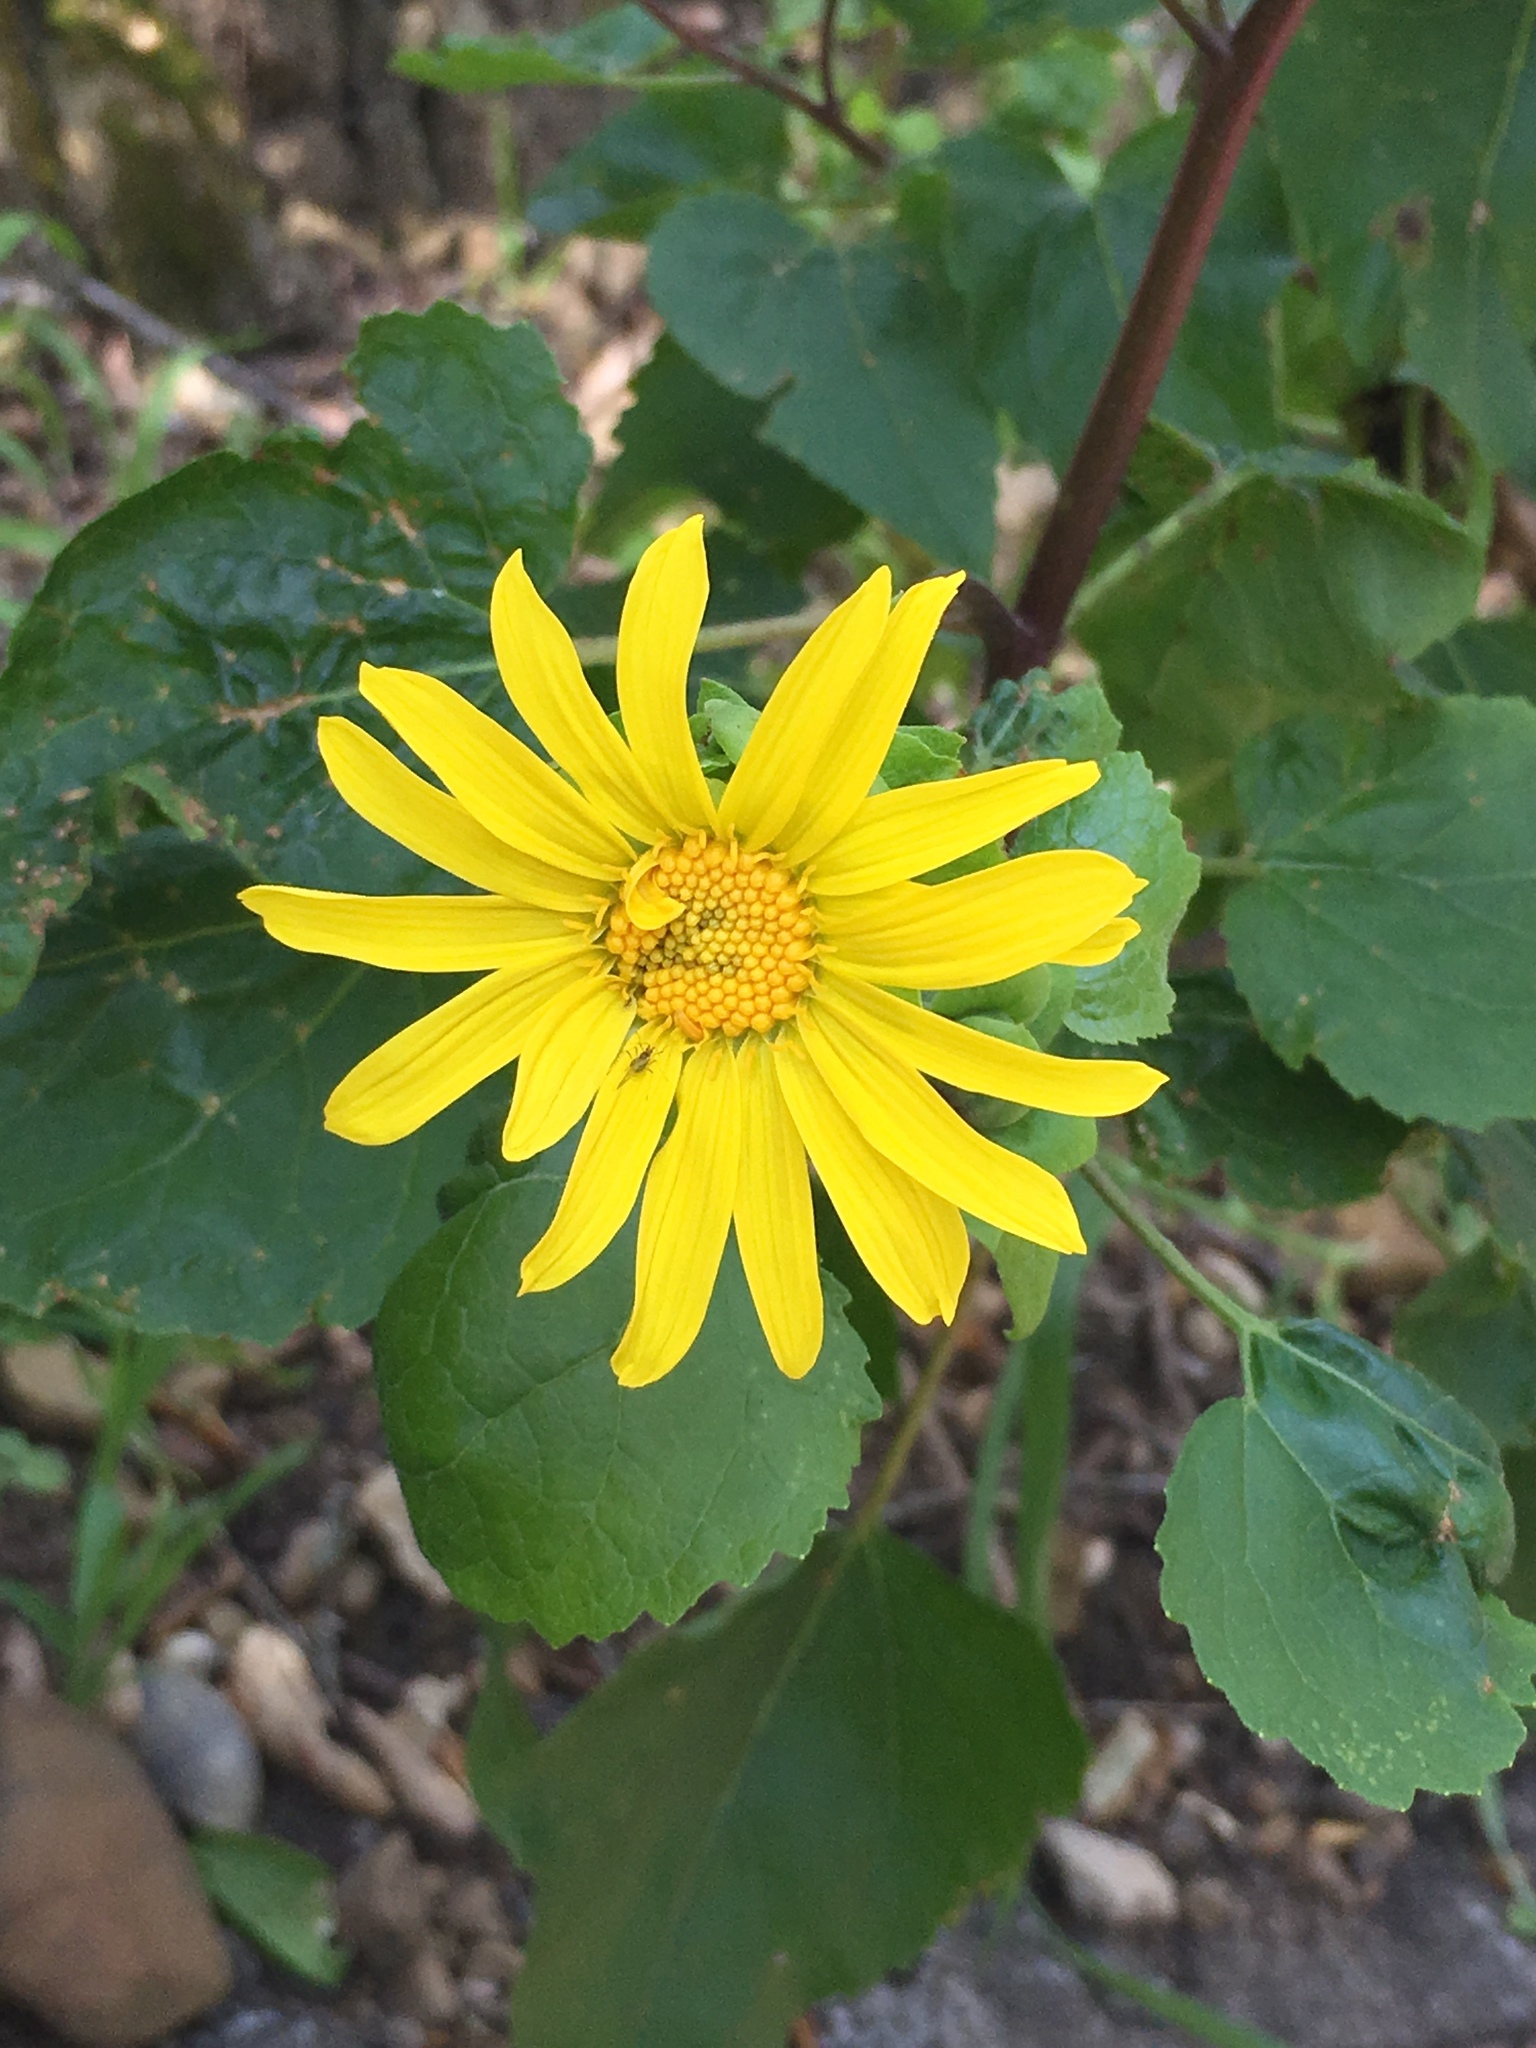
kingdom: Plantae
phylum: Tracheophyta
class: Magnoliopsida
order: Asterales
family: Asteraceae
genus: Venegasia
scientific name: Venegasia carpesioides
